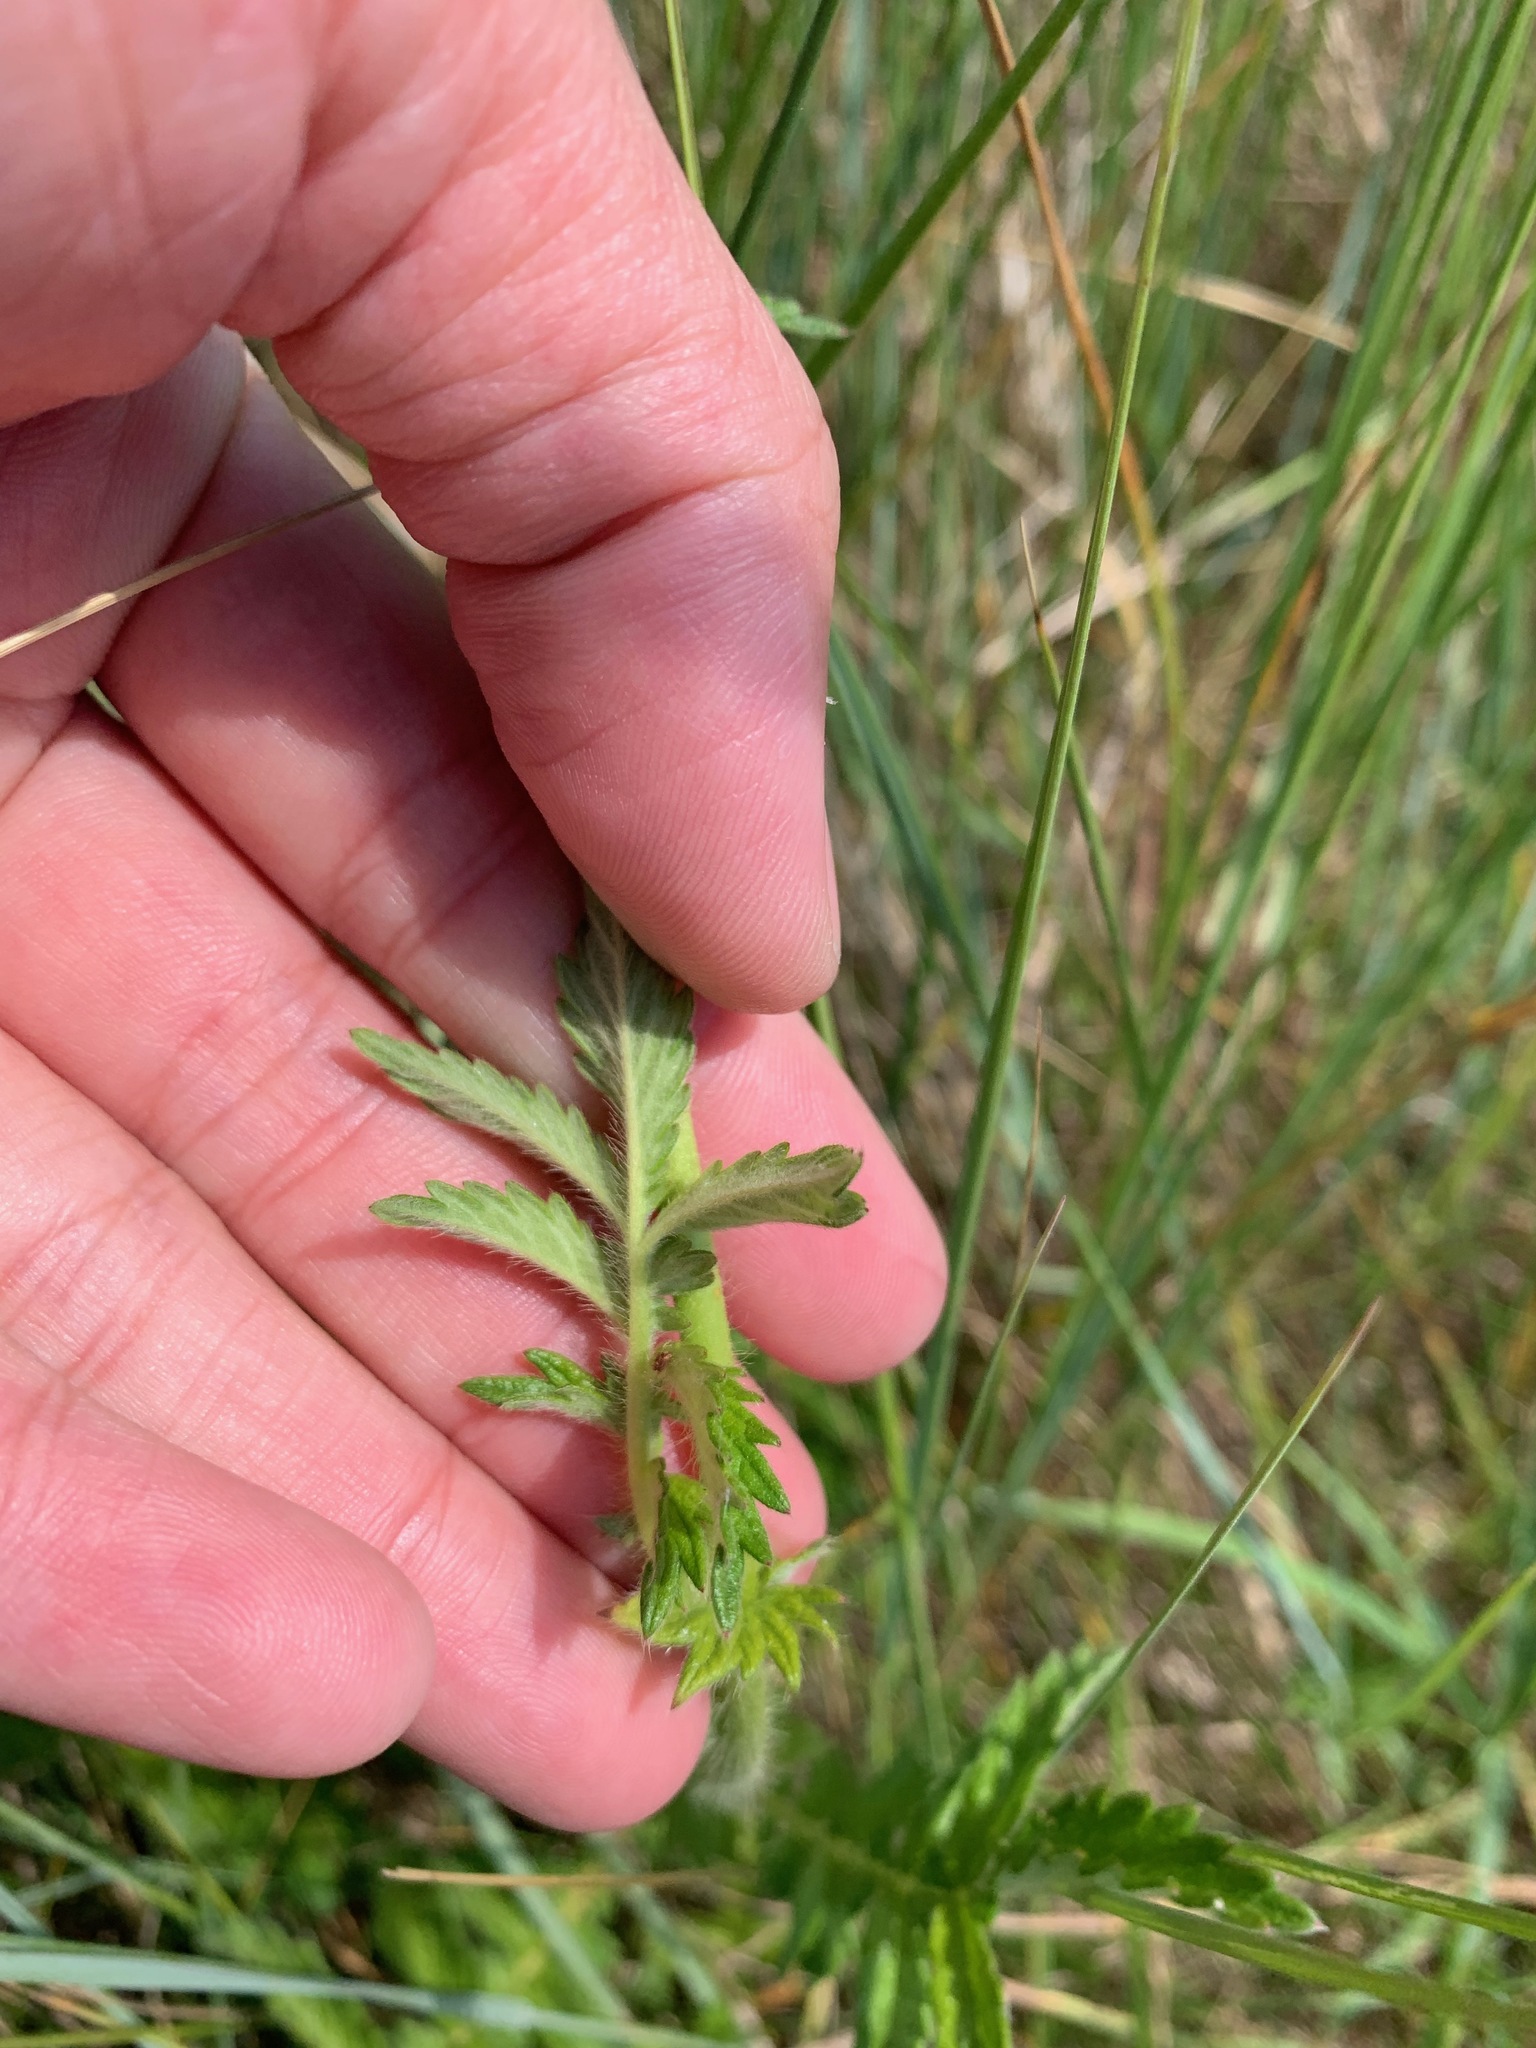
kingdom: Plantae
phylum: Tracheophyta
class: Magnoliopsida
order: Rosales
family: Rosaceae
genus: Agrimonia
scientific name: Agrimonia eupatoria
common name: Agrimony
